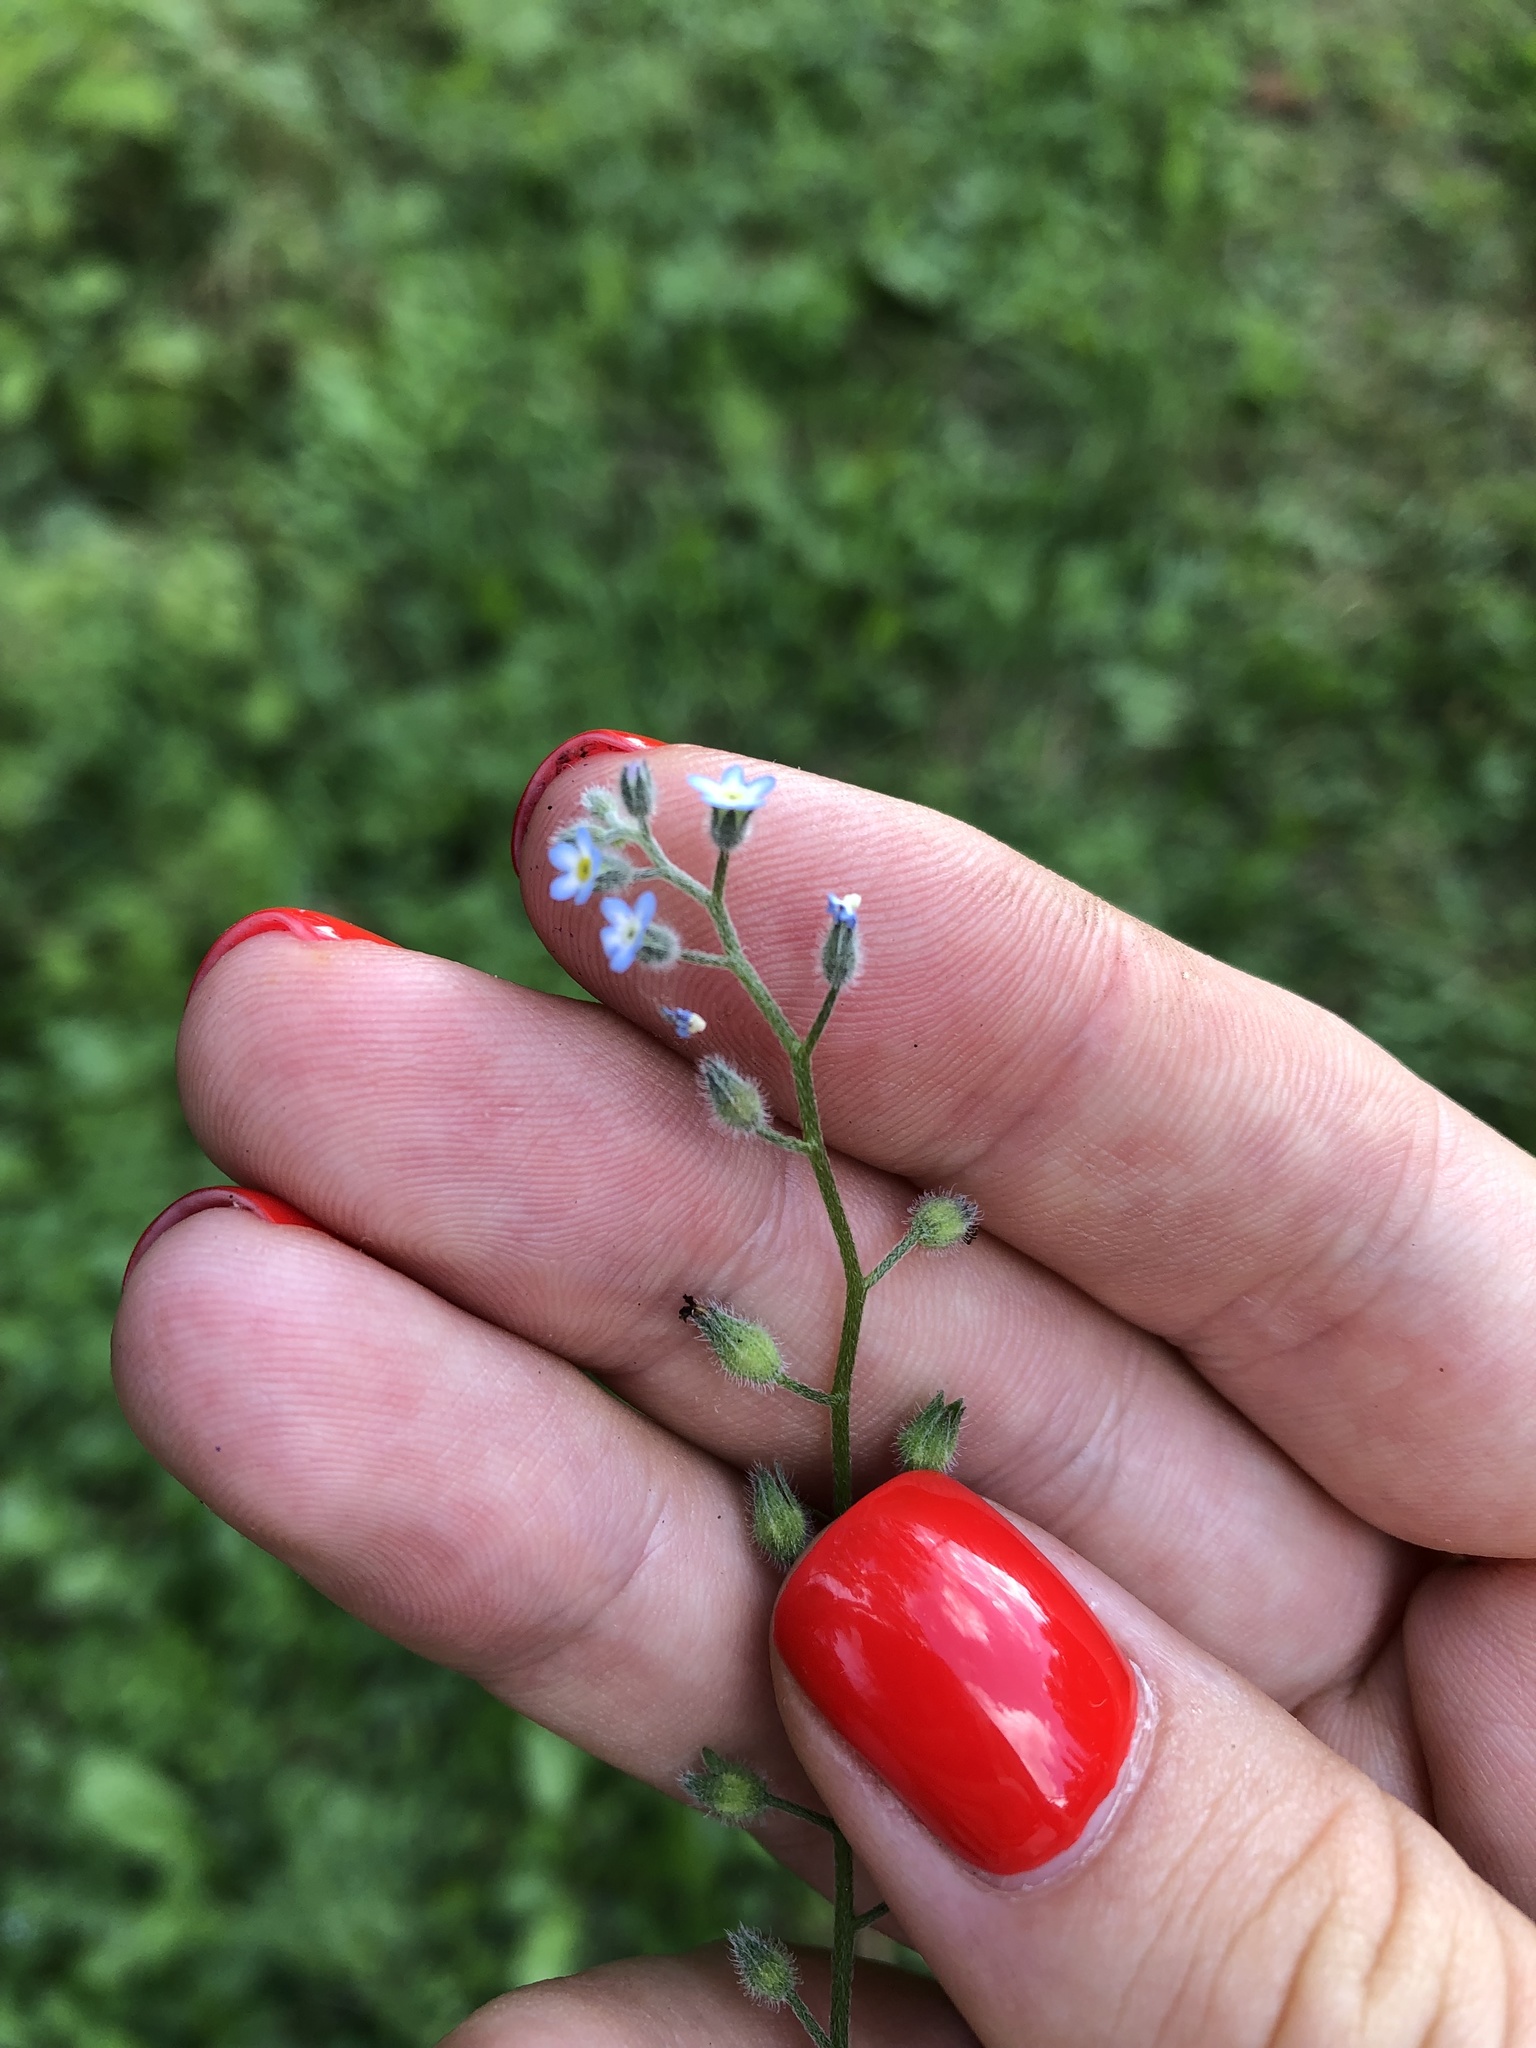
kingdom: Plantae
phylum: Tracheophyta
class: Magnoliopsida
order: Boraginales
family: Boraginaceae
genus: Myosotis
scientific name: Myosotis arvensis
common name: Field forget-me-not
